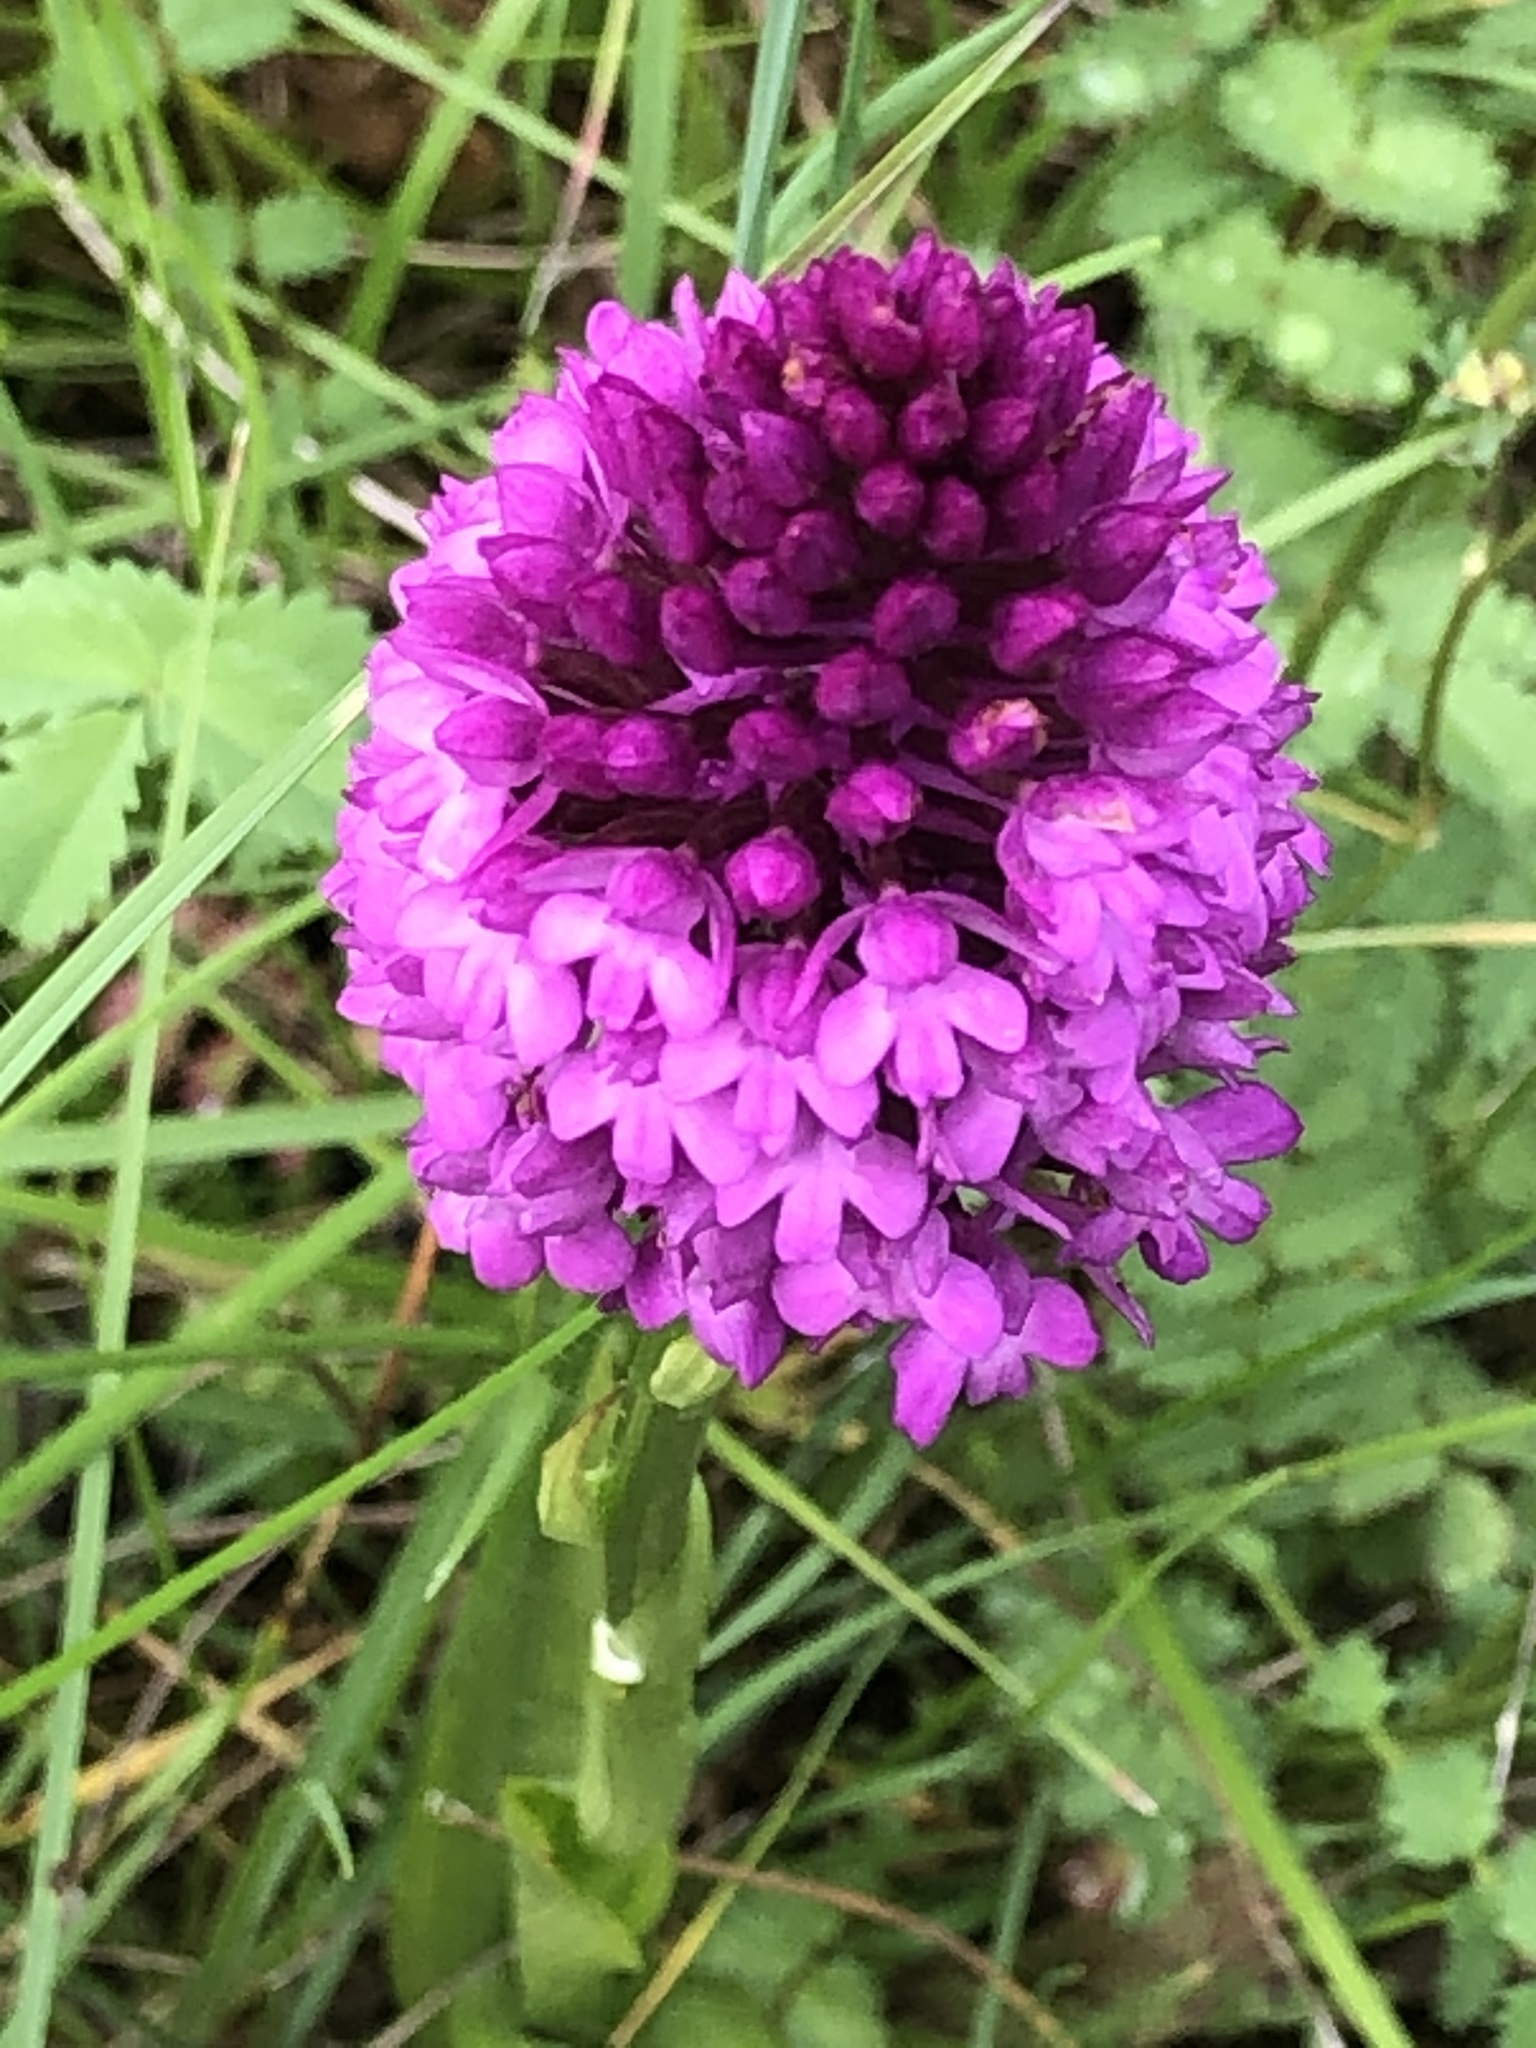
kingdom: Plantae
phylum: Tracheophyta
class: Liliopsida
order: Asparagales
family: Orchidaceae
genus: Anacamptis
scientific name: Anacamptis pyramidalis
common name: Pyramidal orchid
